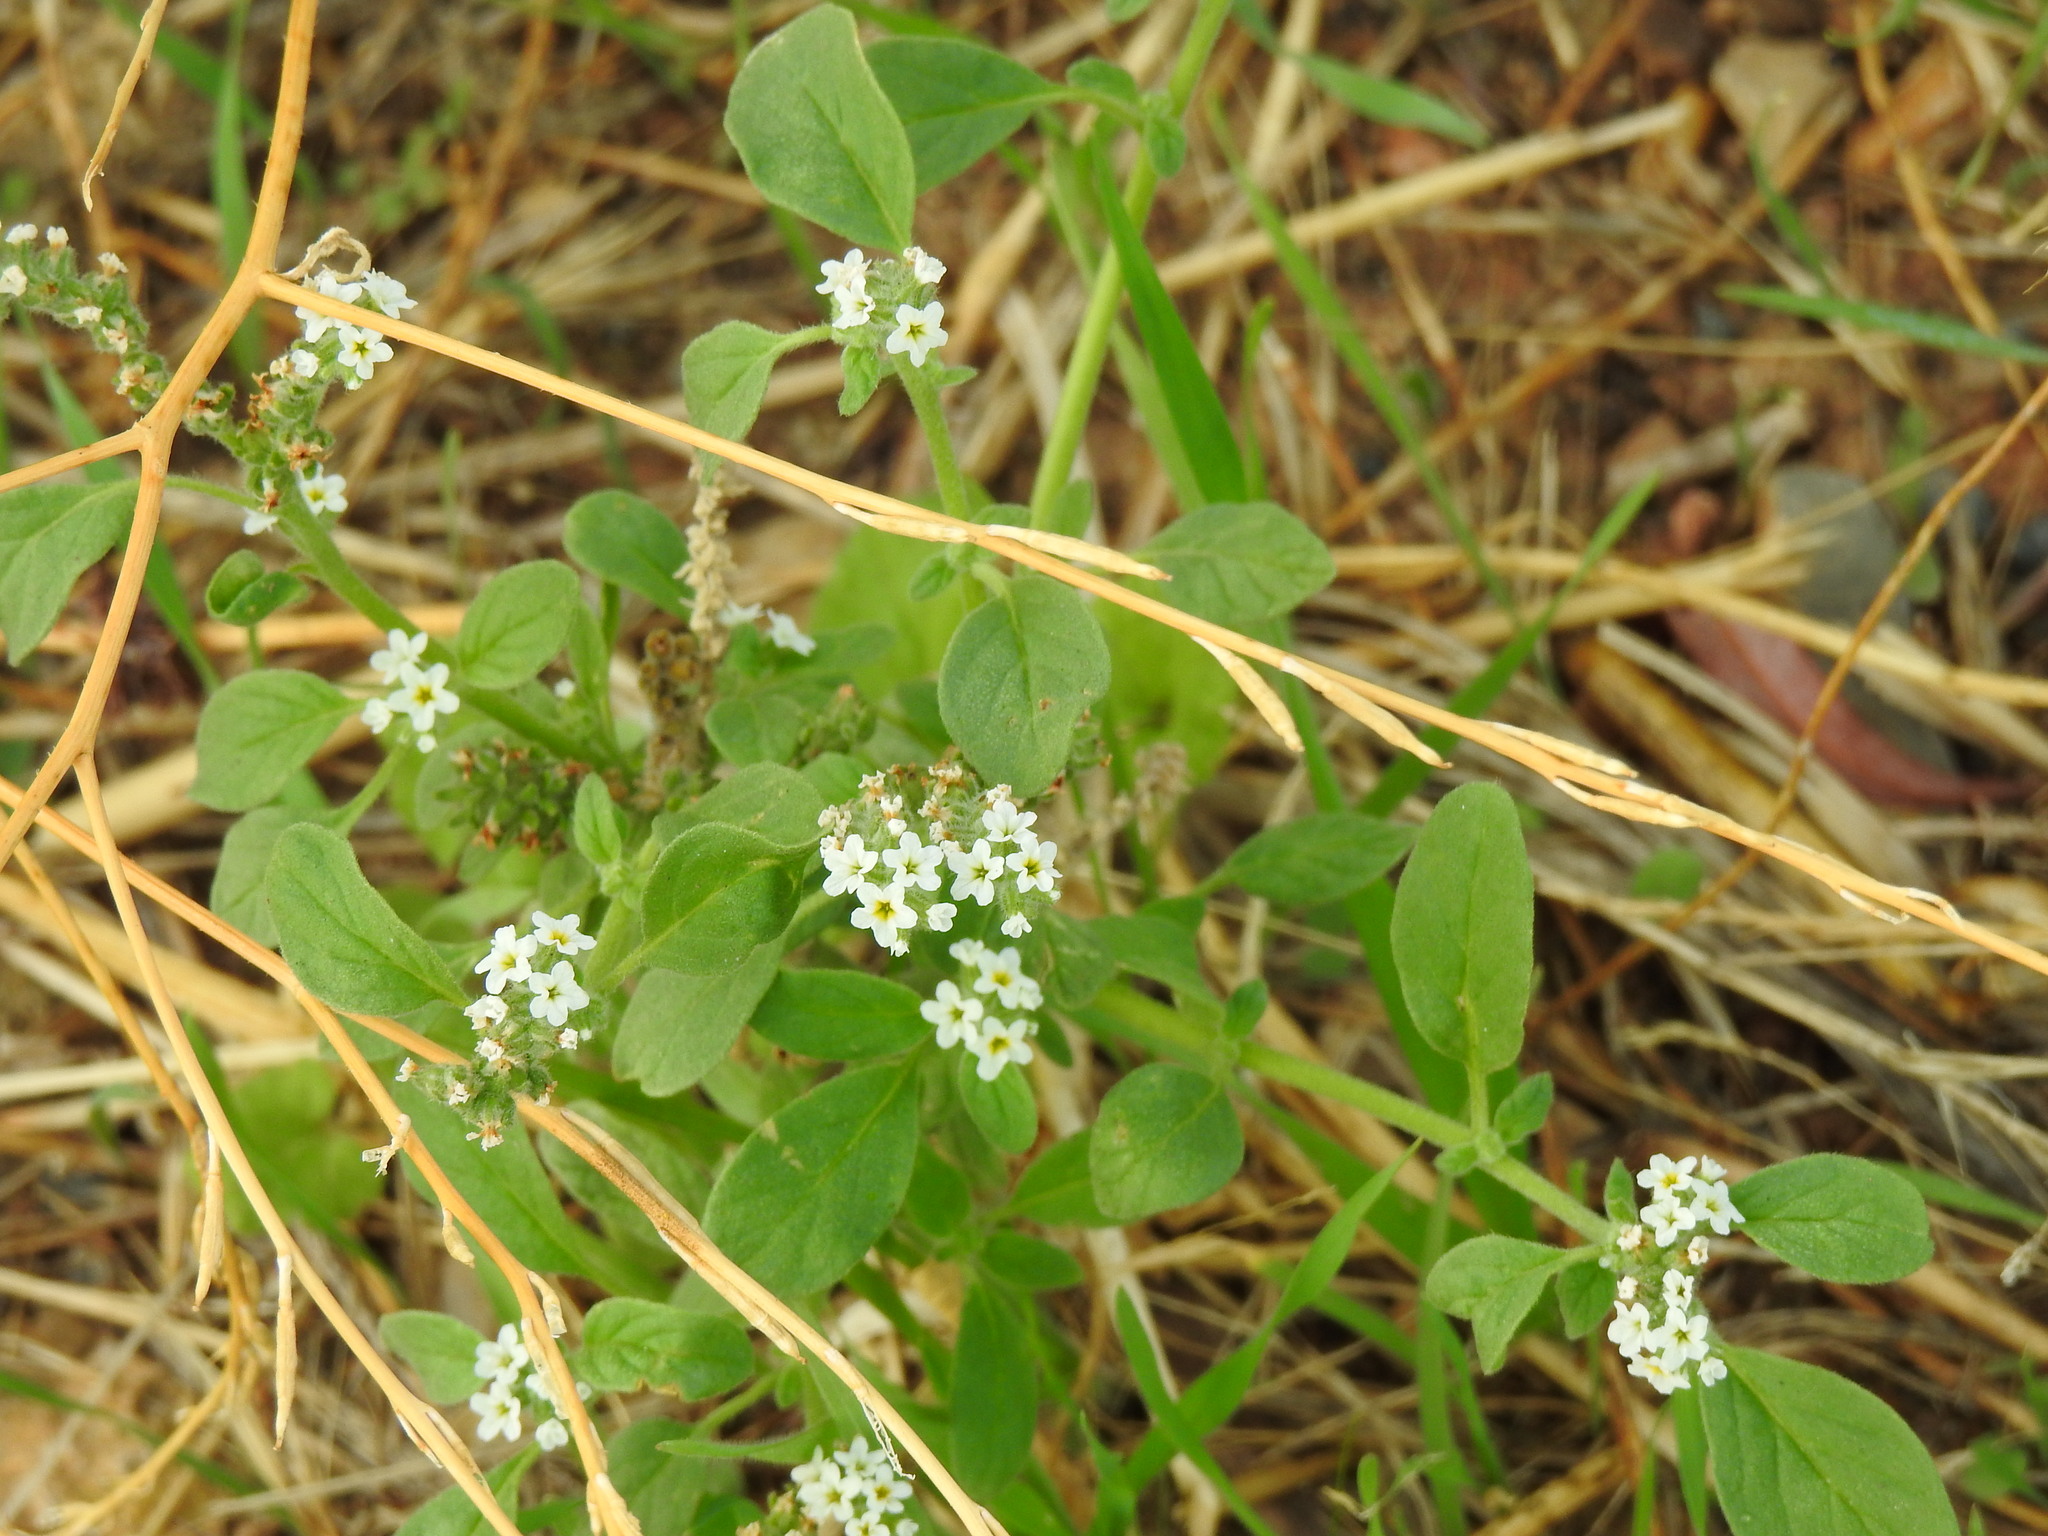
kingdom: Plantae
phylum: Tracheophyta
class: Magnoliopsida
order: Boraginales
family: Heliotropiaceae
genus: Heliotropium
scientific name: Heliotropium europaeum
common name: European heliotrope
